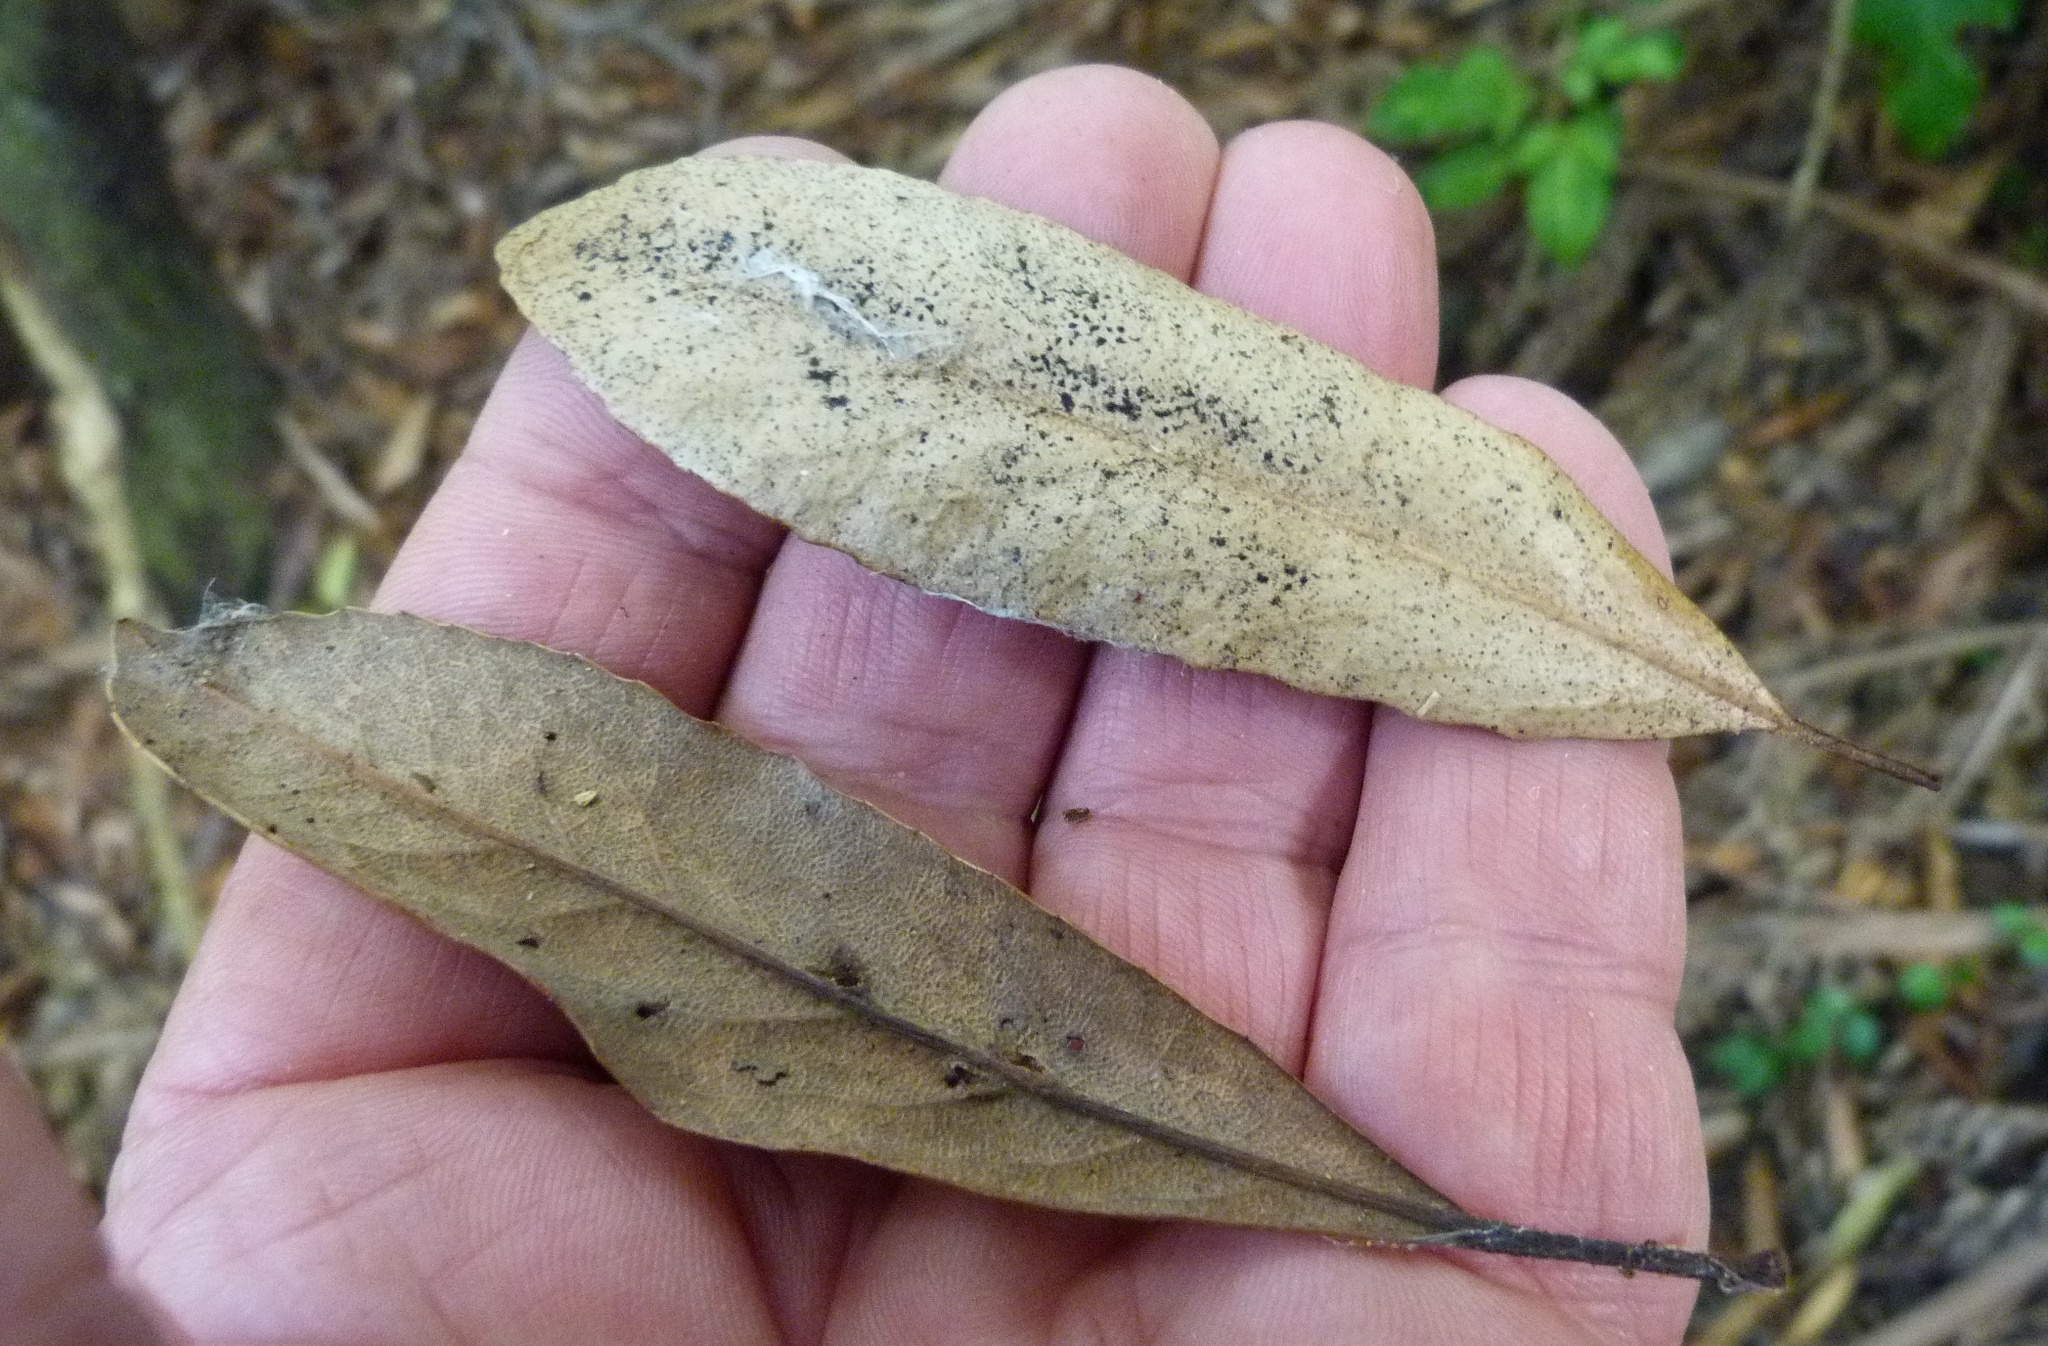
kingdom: Plantae
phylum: Tracheophyta
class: Magnoliopsida
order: Oxalidales
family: Elaeocarpaceae
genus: Elaeocarpus
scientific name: Elaeocarpus dentatus
